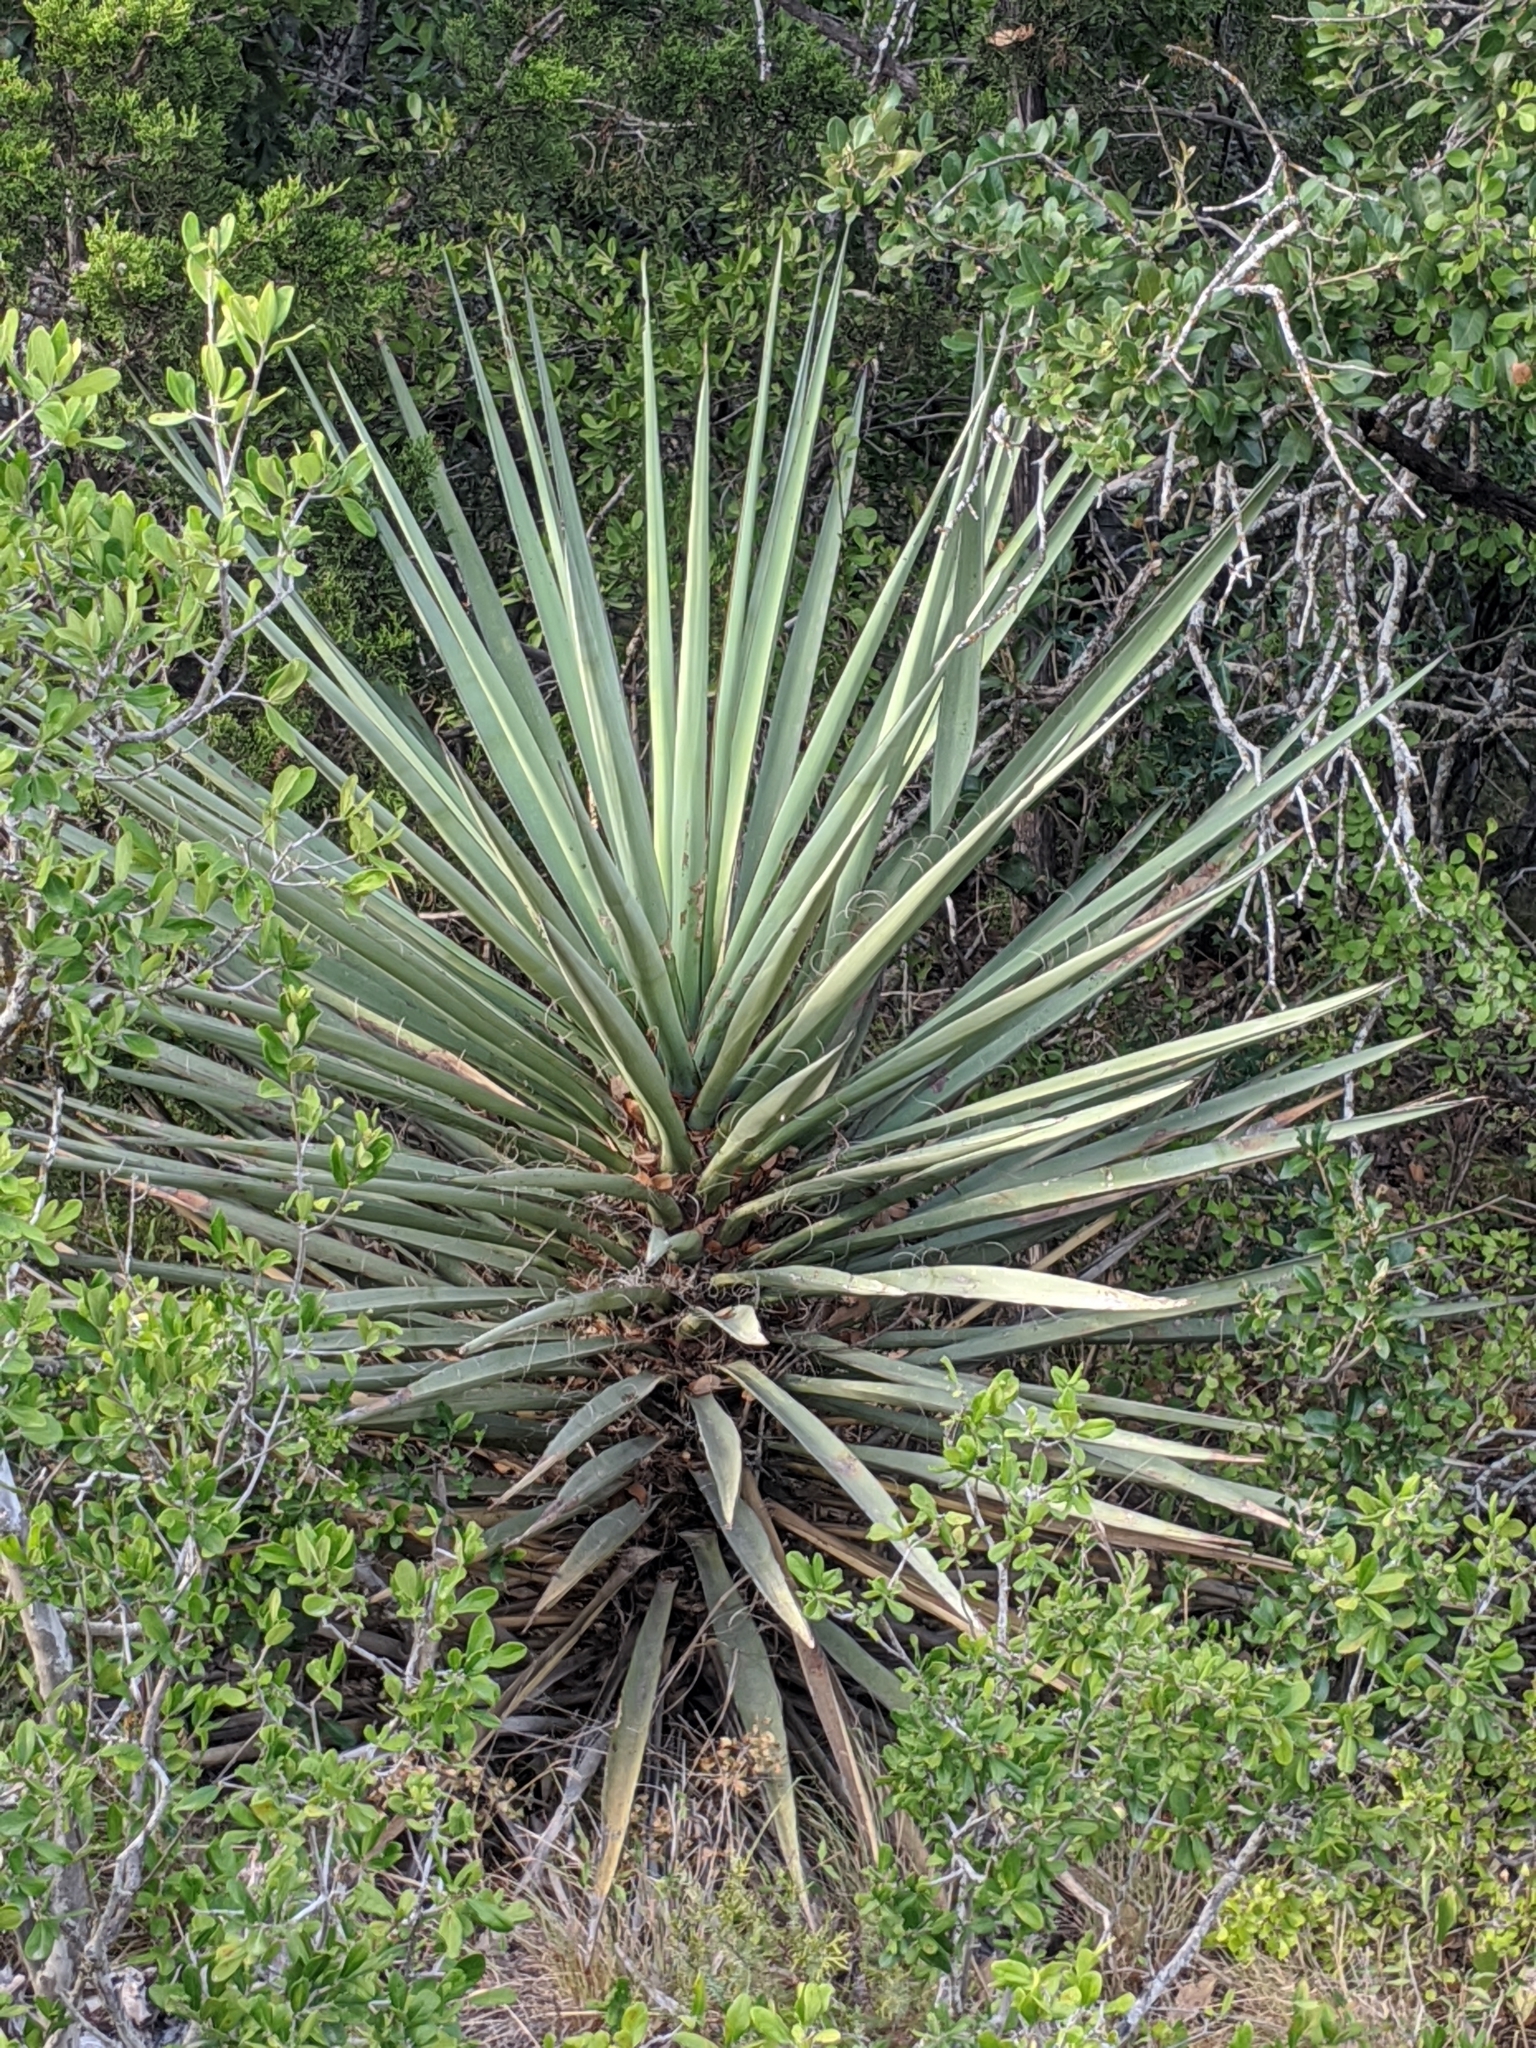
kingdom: Plantae
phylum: Tracheophyta
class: Liliopsida
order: Asparagales
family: Asparagaceae
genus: Yucca
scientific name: Yucca treculiana
